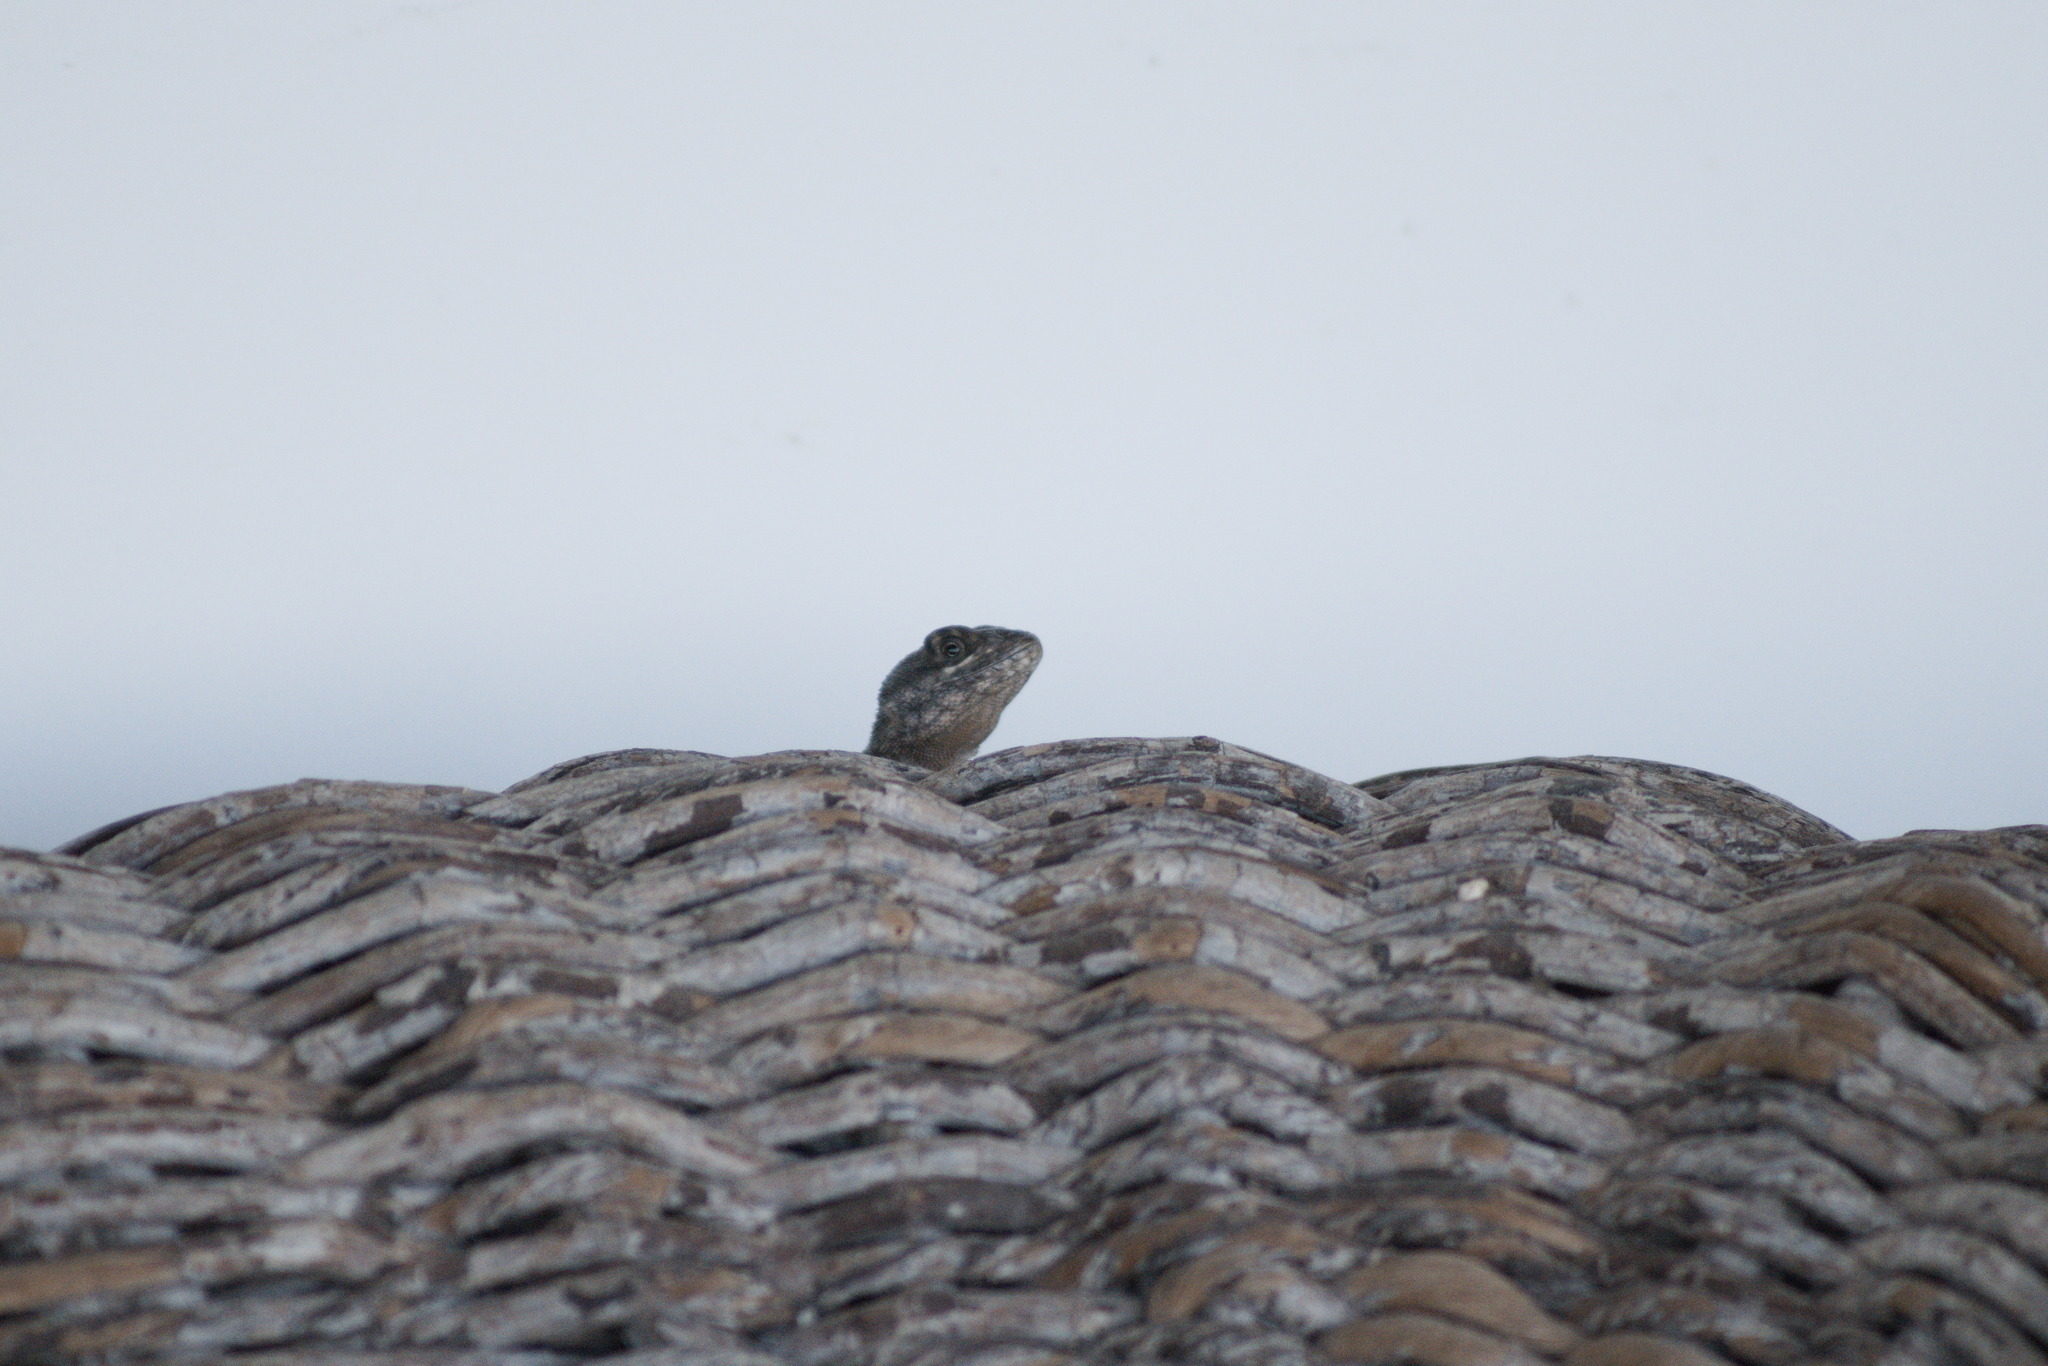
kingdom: Animalia
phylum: Chordata
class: Squamata
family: Tropiduridae
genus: Tropidurus
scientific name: Tropidurus hispidus
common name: Peters' lava lizard
